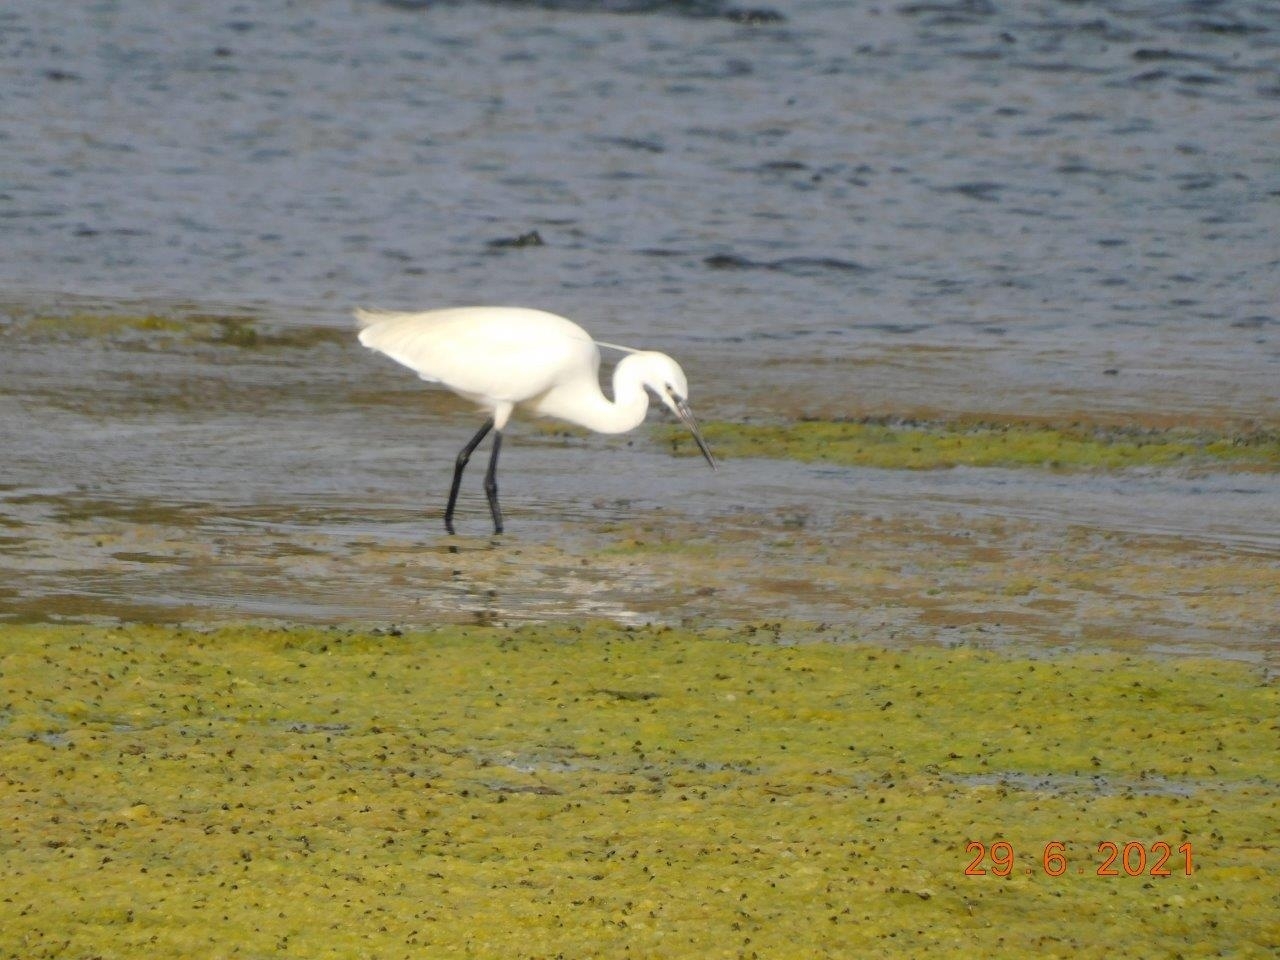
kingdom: Animalia
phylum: Chordata
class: Aves
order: Pelecaniformes
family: Ardeidae
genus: Egretta
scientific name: Egretta garzetta
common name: Little egret
